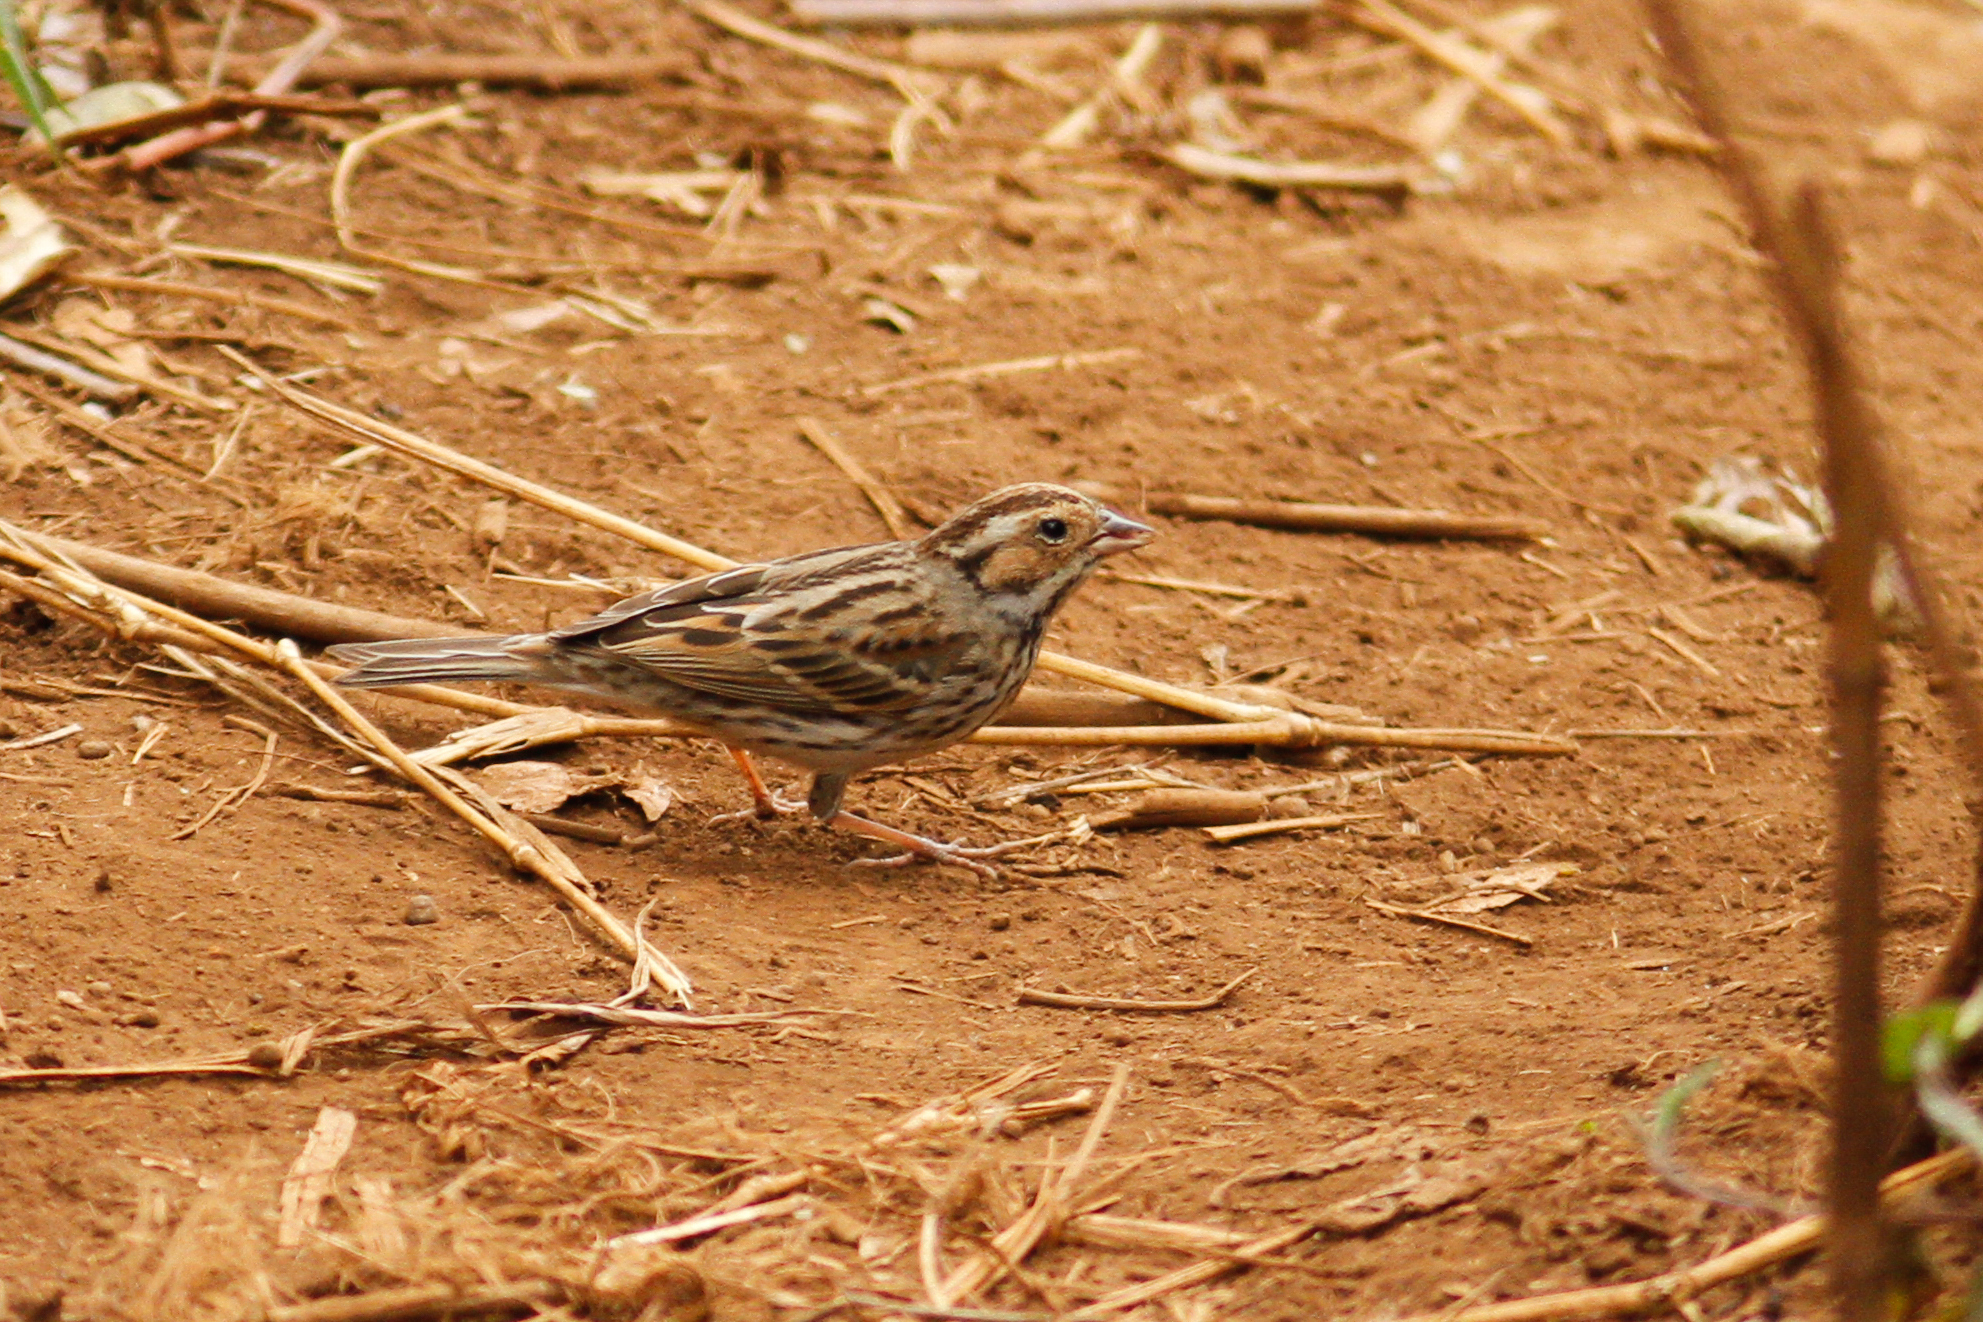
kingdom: Animalia
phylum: Chordata
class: Aves
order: Passeriformes
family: Emberizidae
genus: Emberiza
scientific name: Emberiza pusilla
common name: Little bunting
